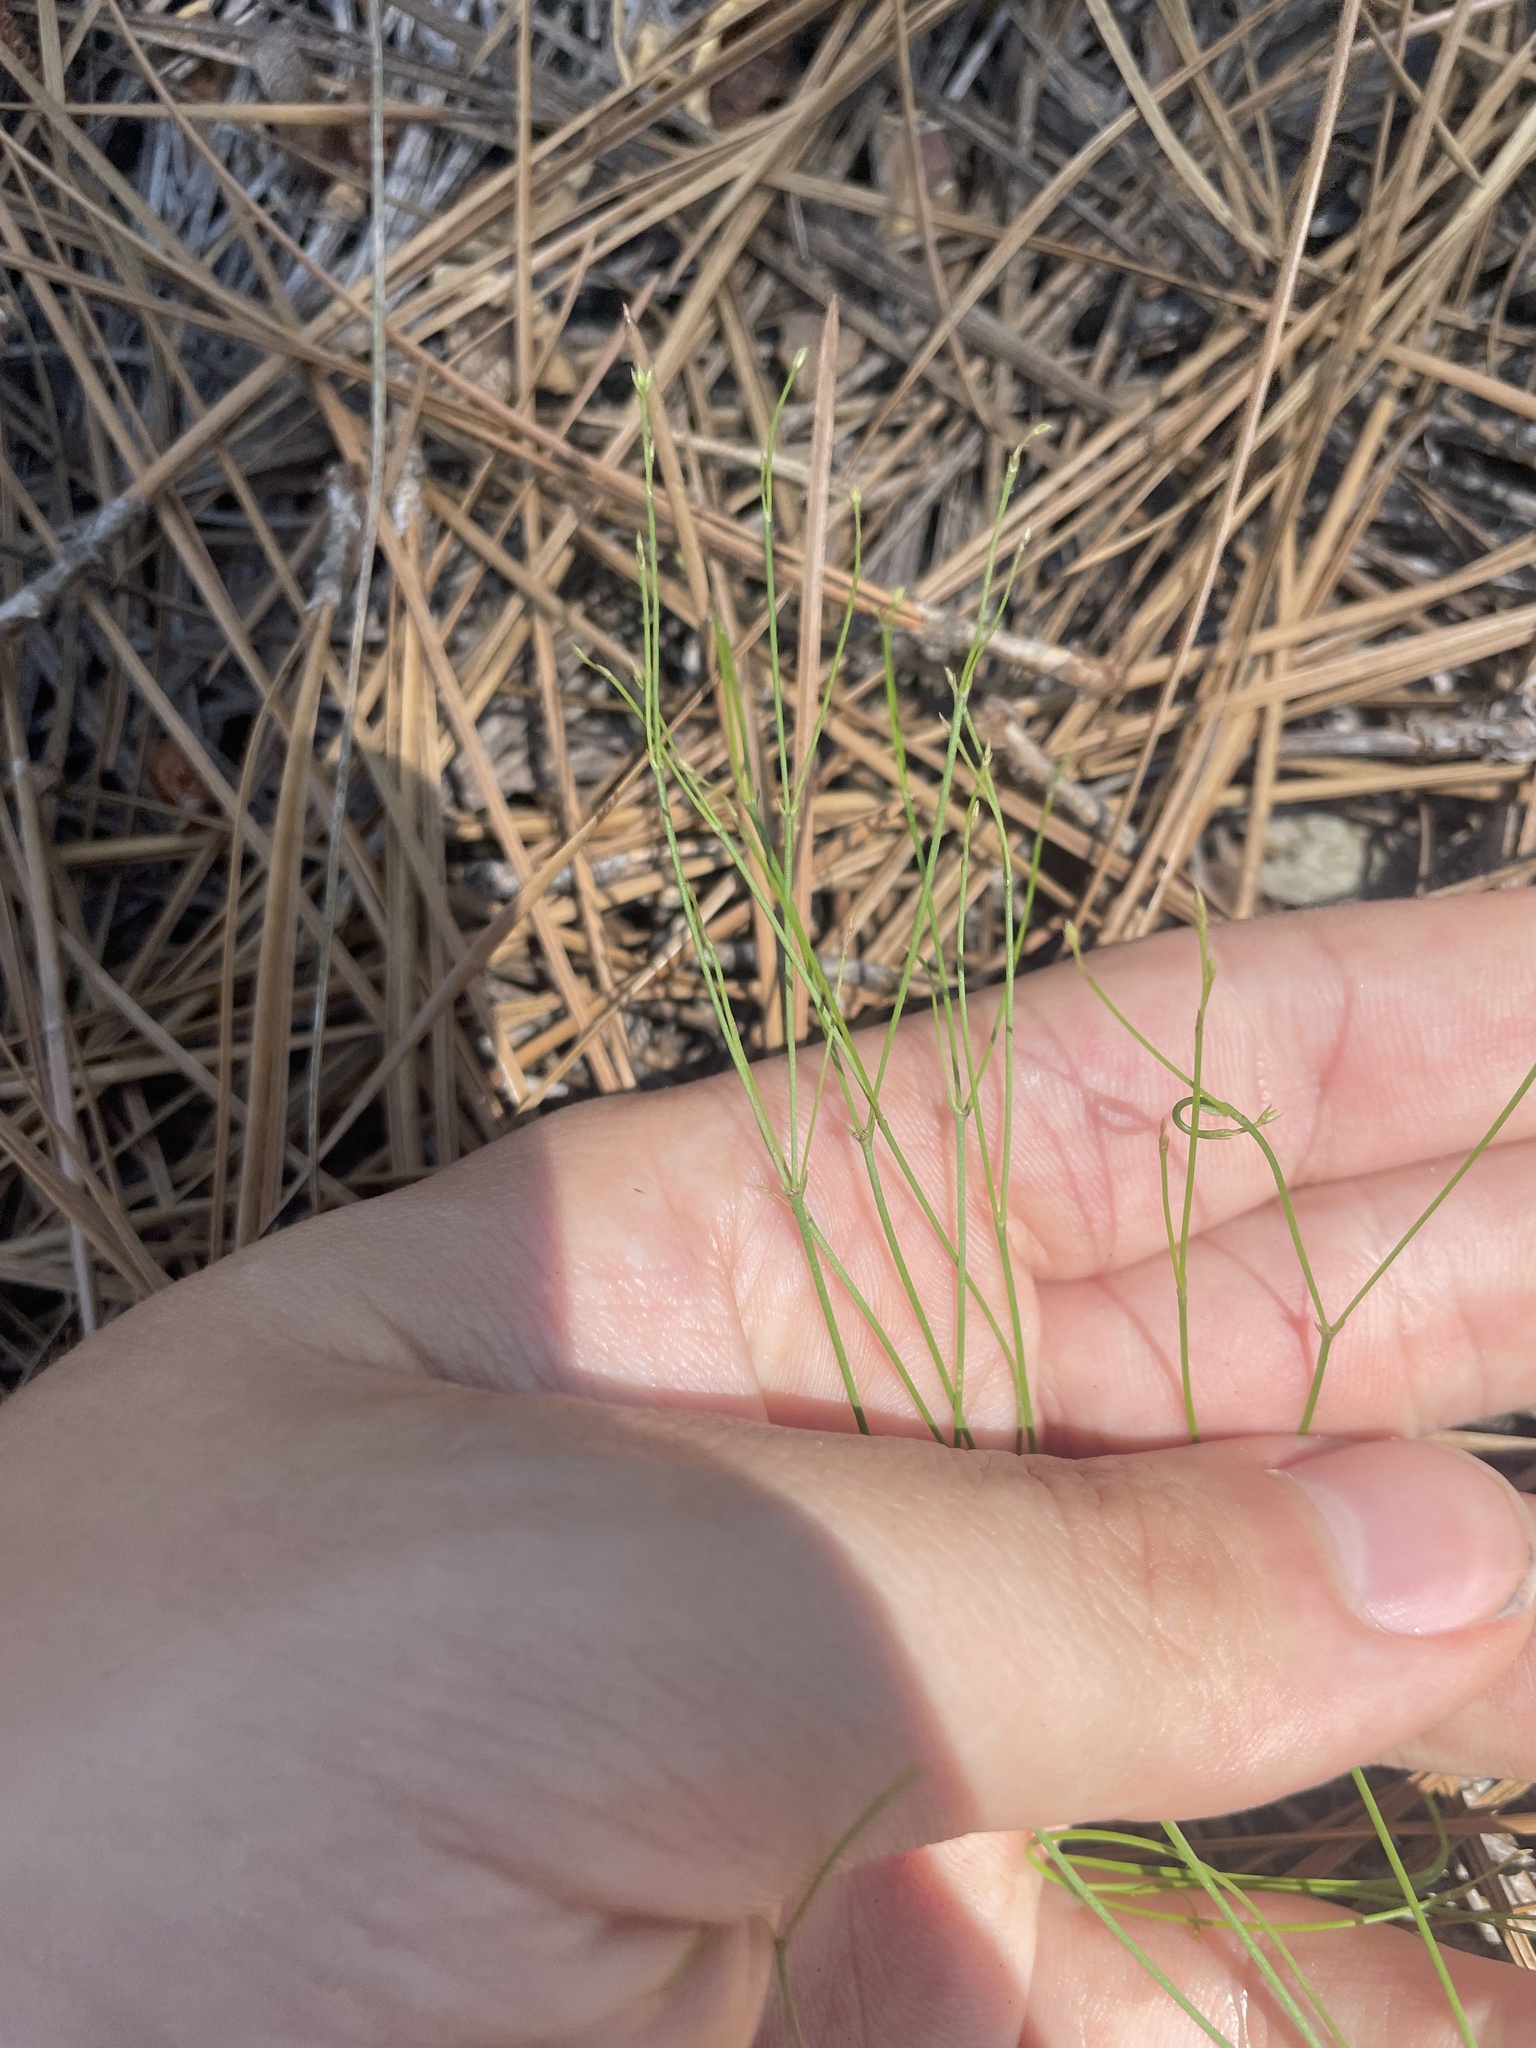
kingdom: Plantae
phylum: Tracheophyta
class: Magnoliopsida
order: Caryophyllales
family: Caryophyllaceae
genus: Stipulicida
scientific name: Stipulicida setacea
